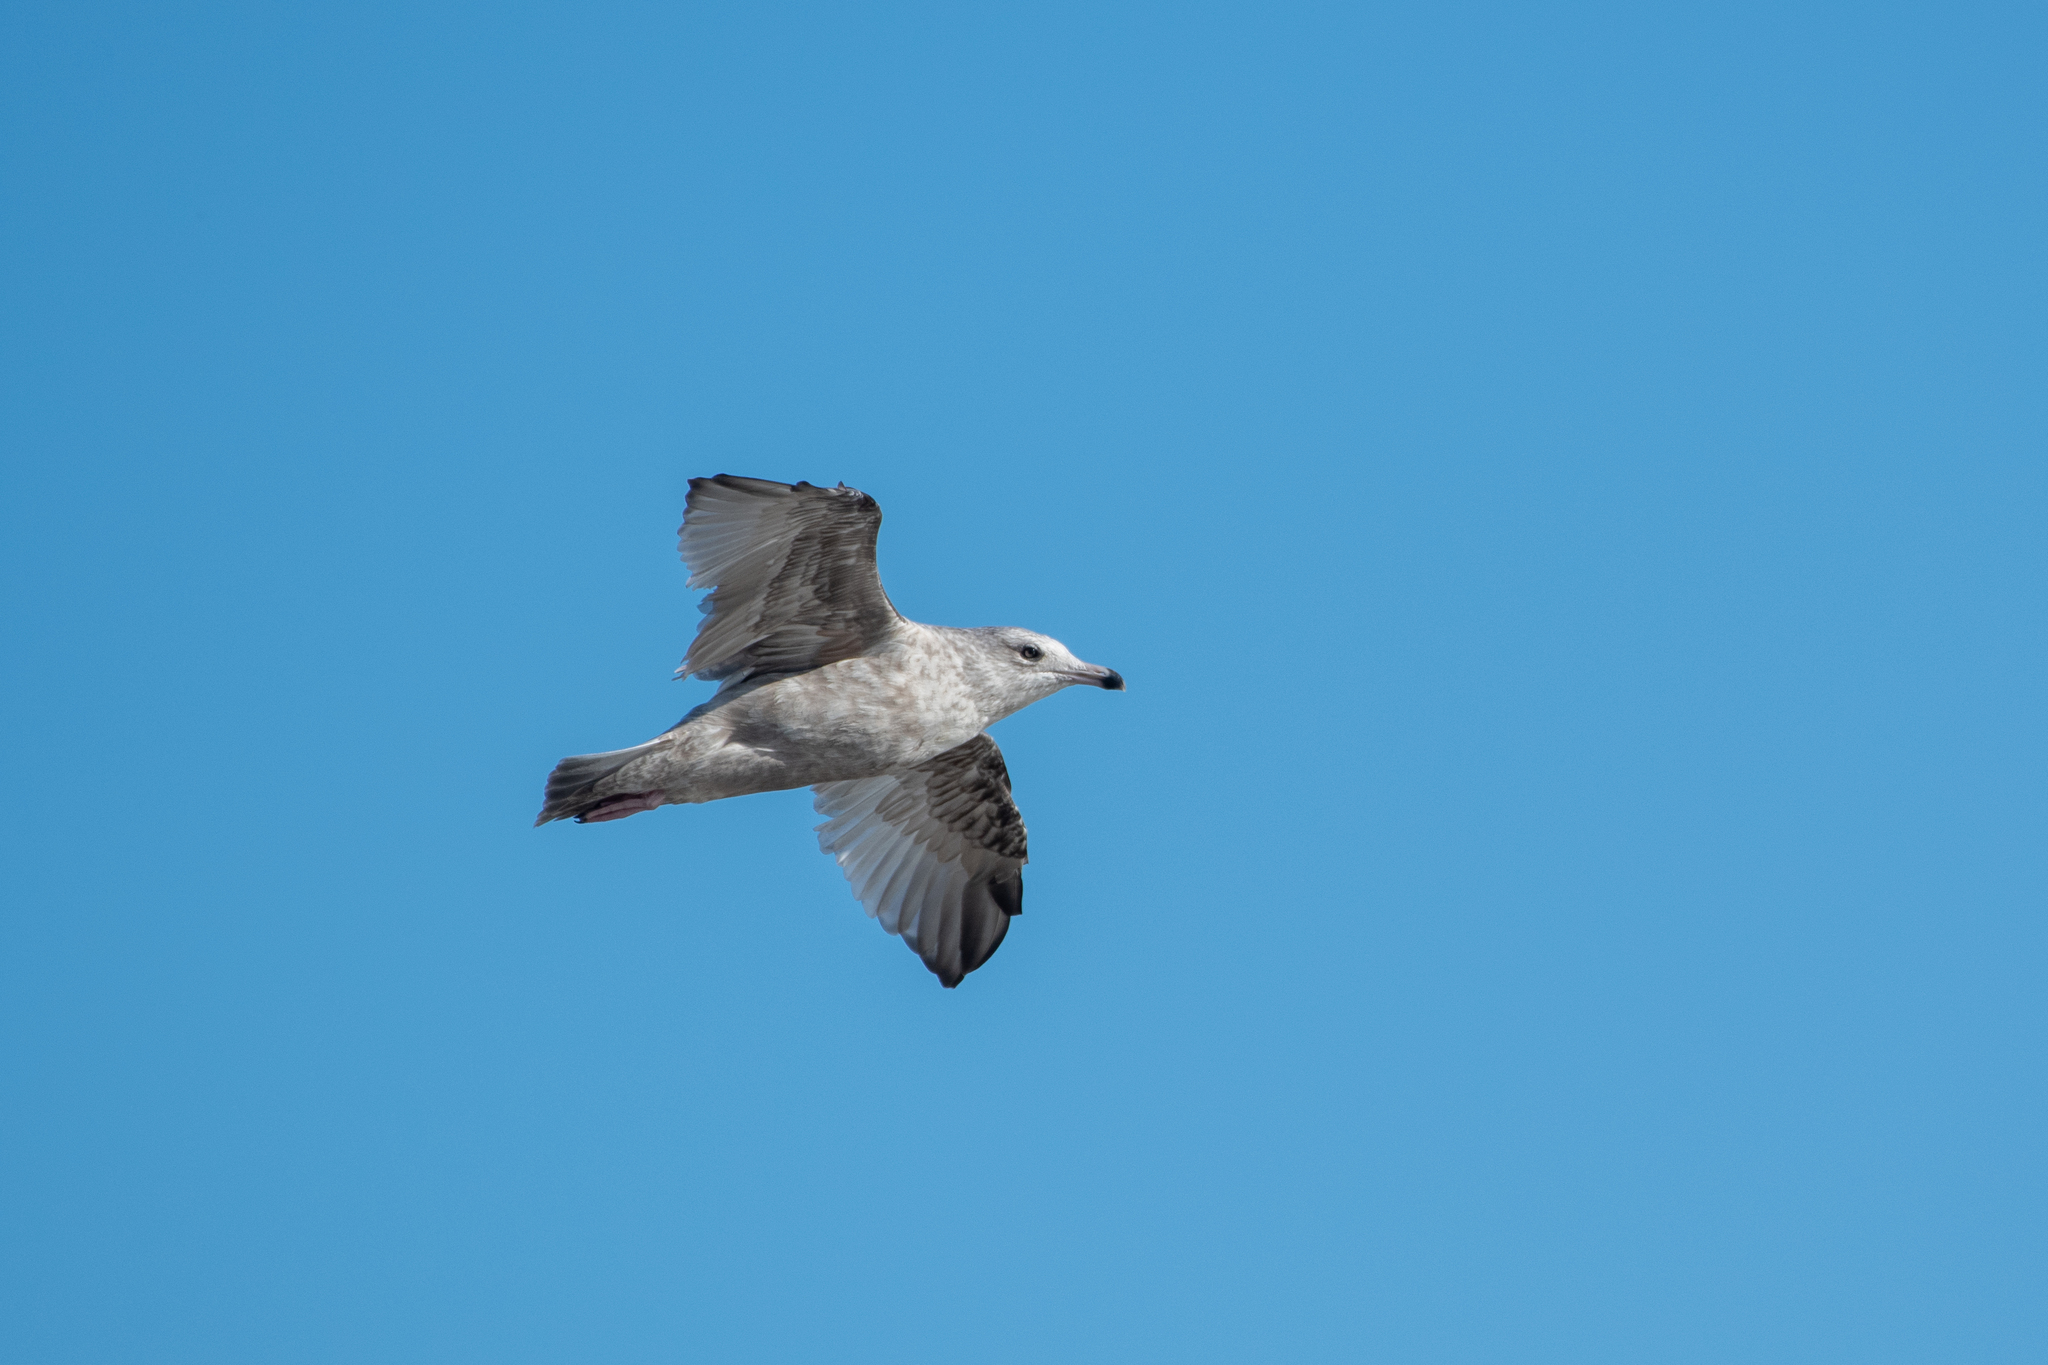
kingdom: Animalia
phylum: Chordata
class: Aves
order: Charadriiformes
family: Laridae
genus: Larus
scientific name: Larus delawarensis
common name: Ring-billed gull
